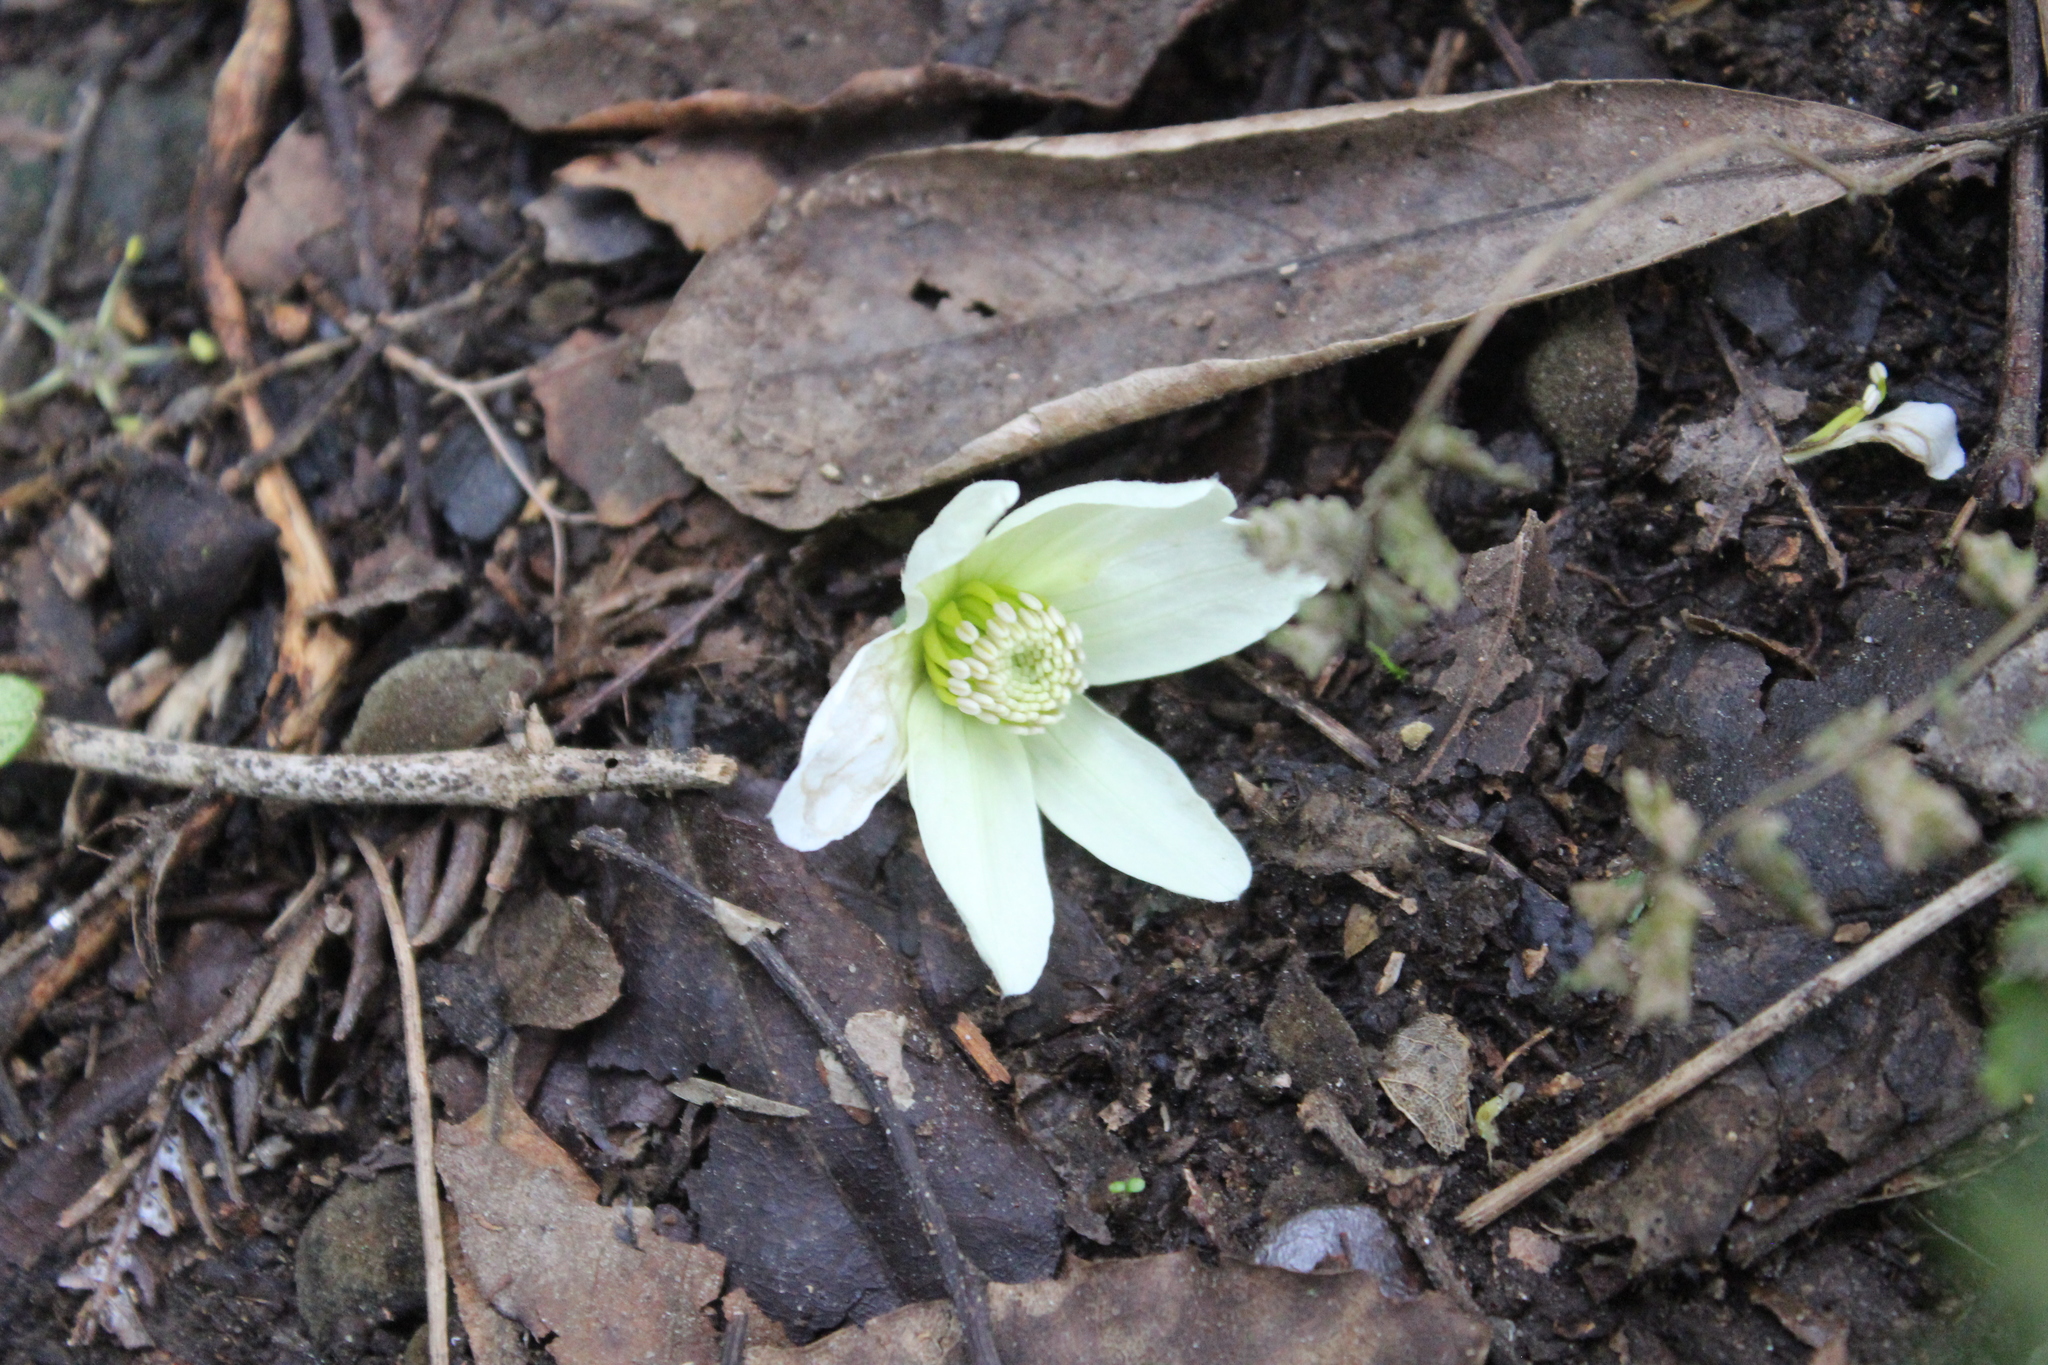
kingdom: Plantae
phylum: Tracheophyta
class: Magnoliopsida
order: Ranunculales
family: Ranunculaceae
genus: Clematis
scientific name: Clematis paniculata
